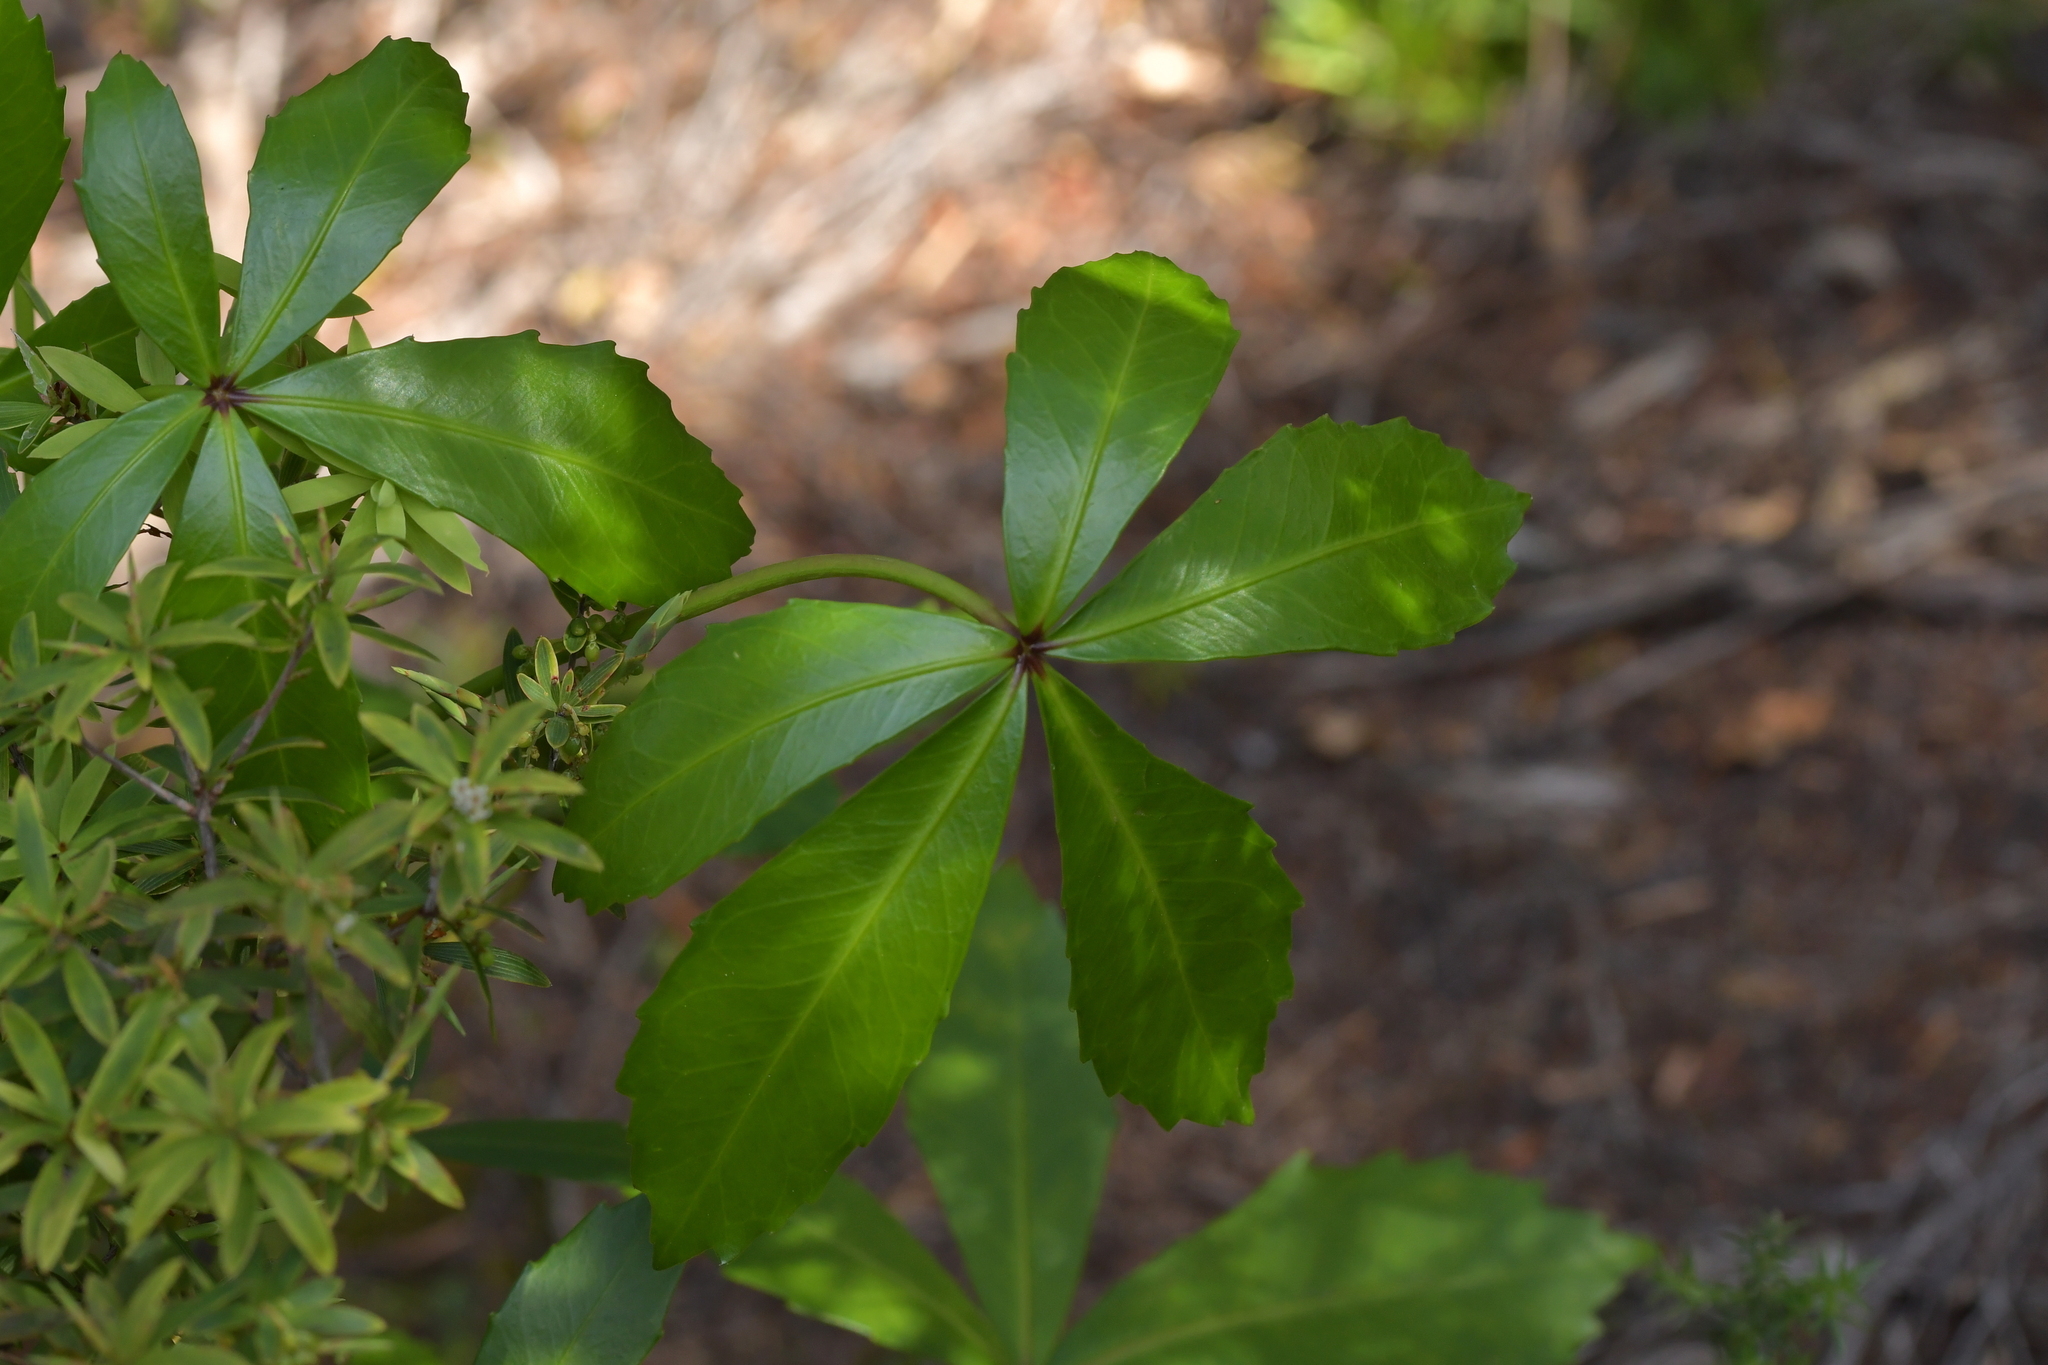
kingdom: Plantae
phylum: Tracheophyta
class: Magnoliopsida
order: Apiales
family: Araliaceae
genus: Pseudopanax
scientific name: Pseudopanax lessonii
